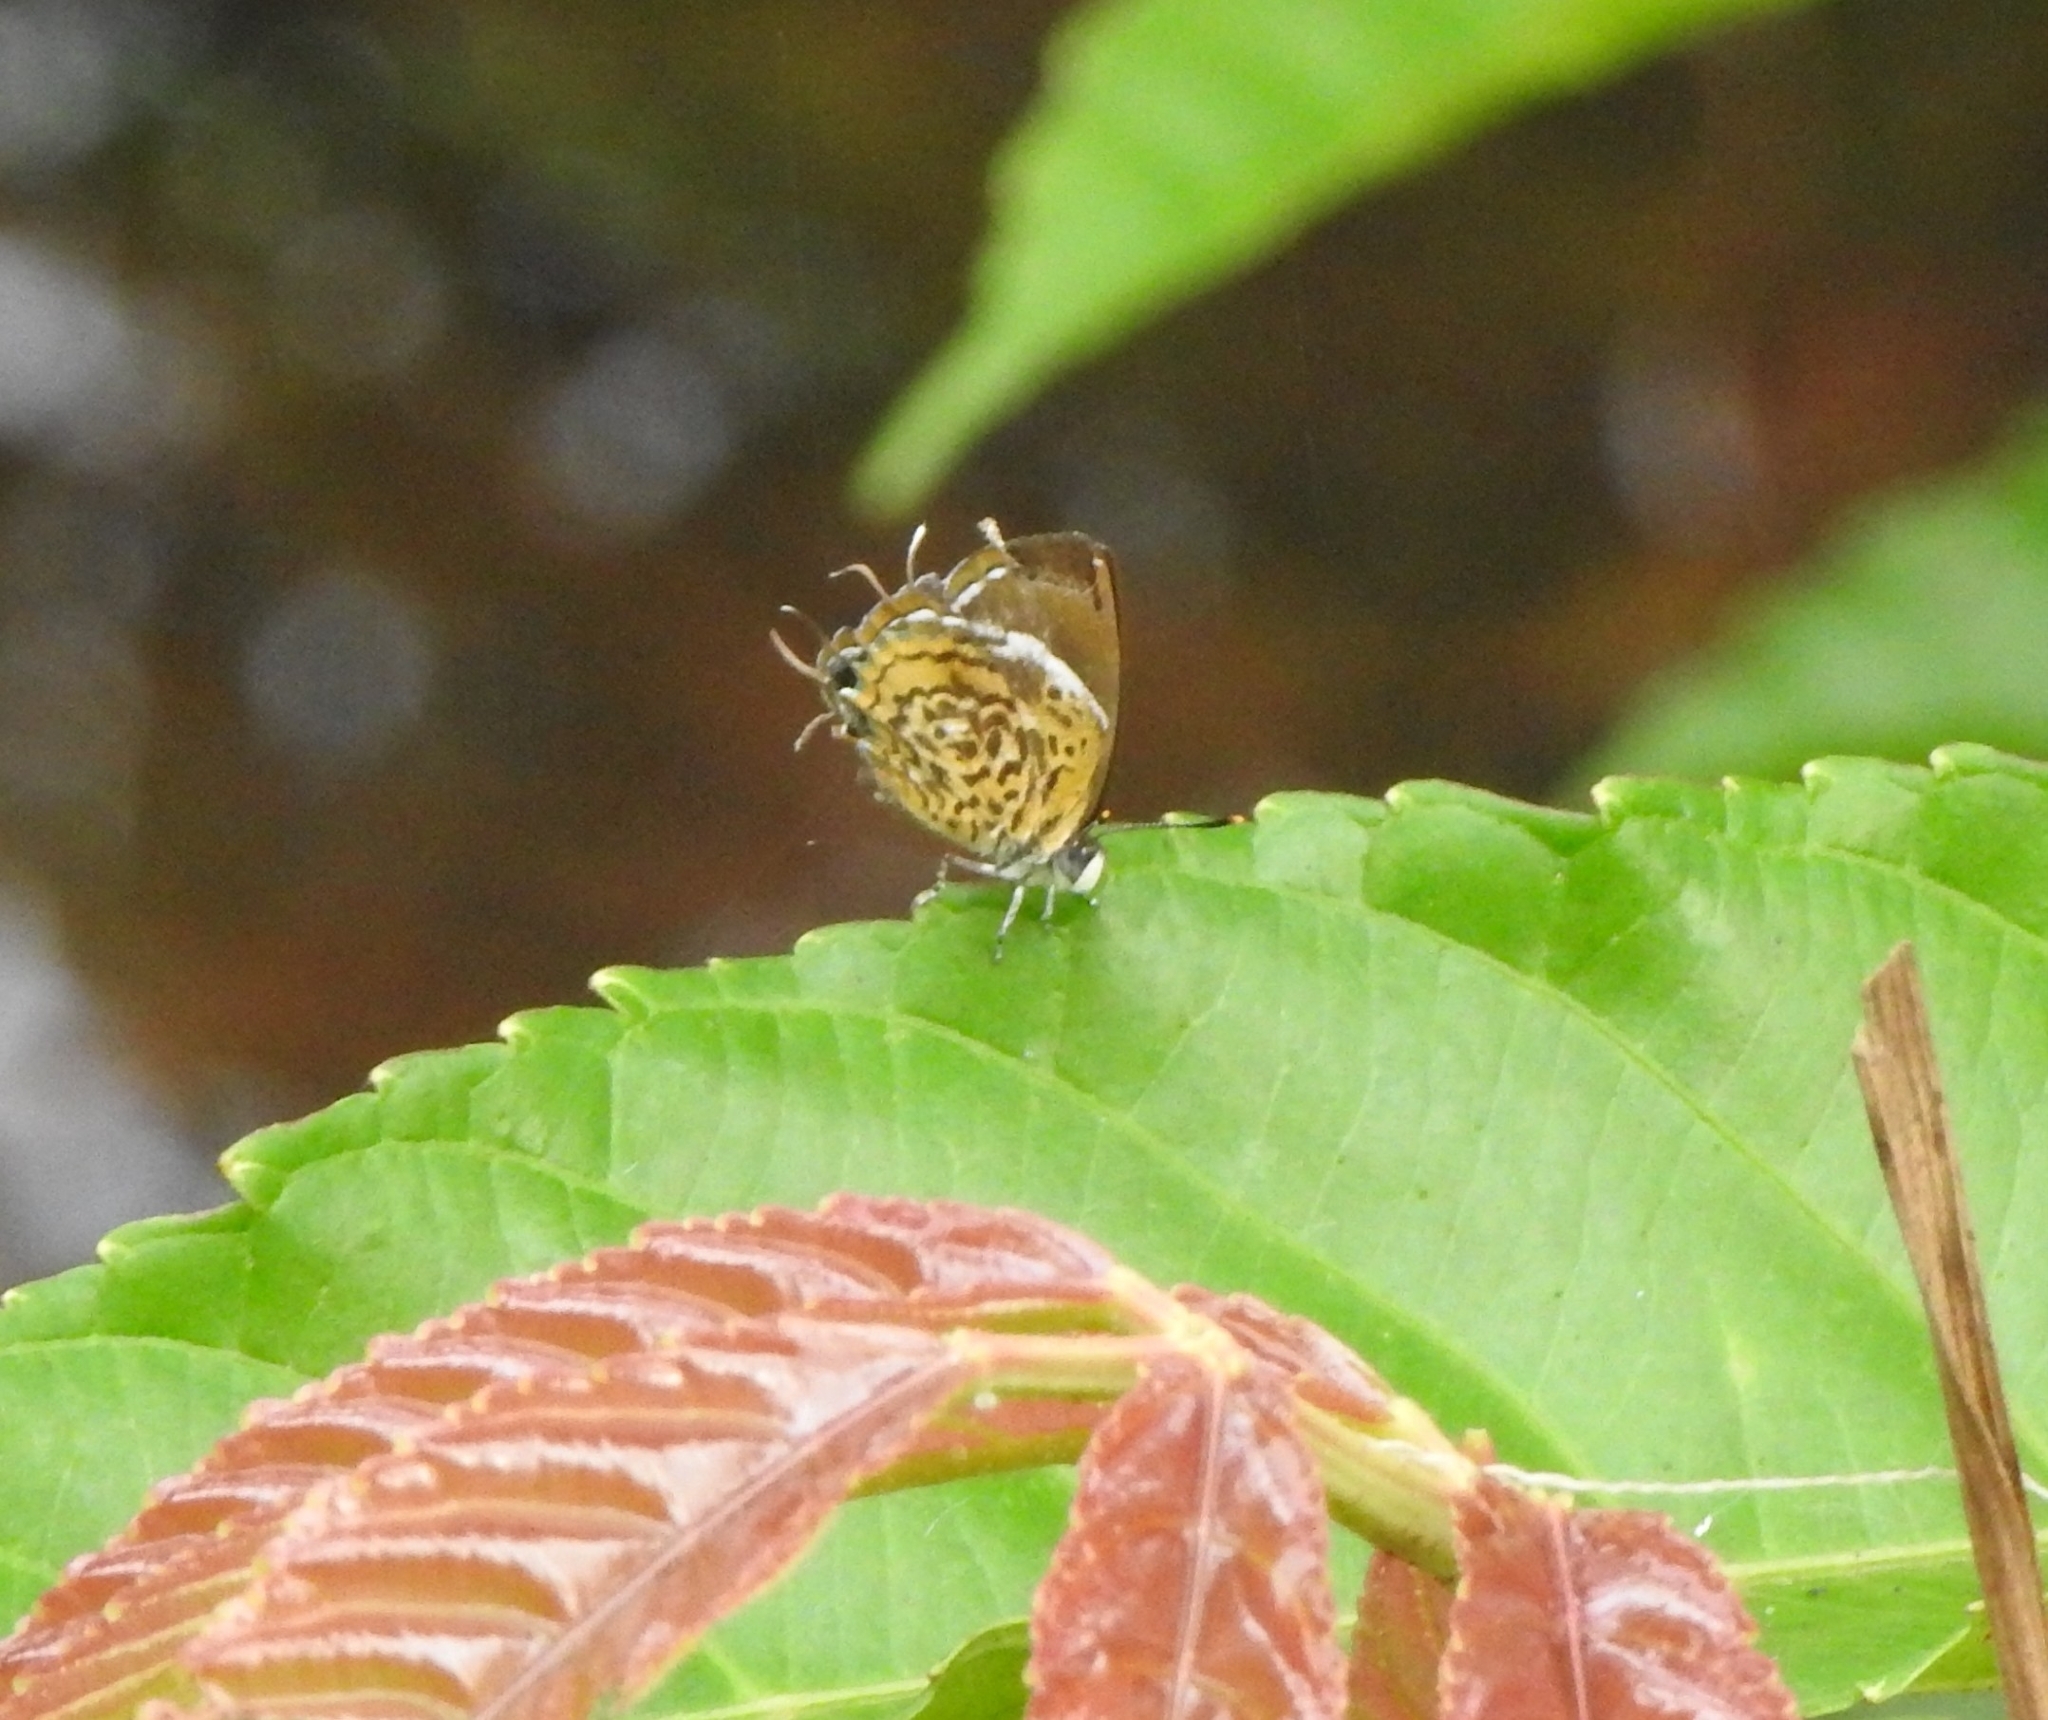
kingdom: Animalia
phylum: Arthropoda
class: Insecta
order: Lepidoptera
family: Lycaenidae
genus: Rathinda
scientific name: Rathinda amor
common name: Monkey puzzle
